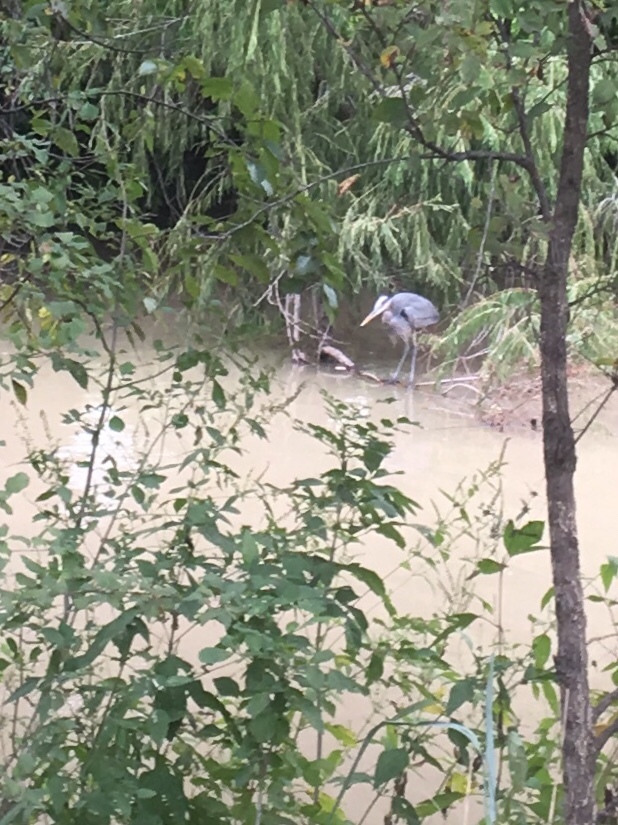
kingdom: Animalia
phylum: Chordata
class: Aves
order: Pelecaniformes
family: Ardeidae
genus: Ardea
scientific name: Ardea herodias
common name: Great blue heron
